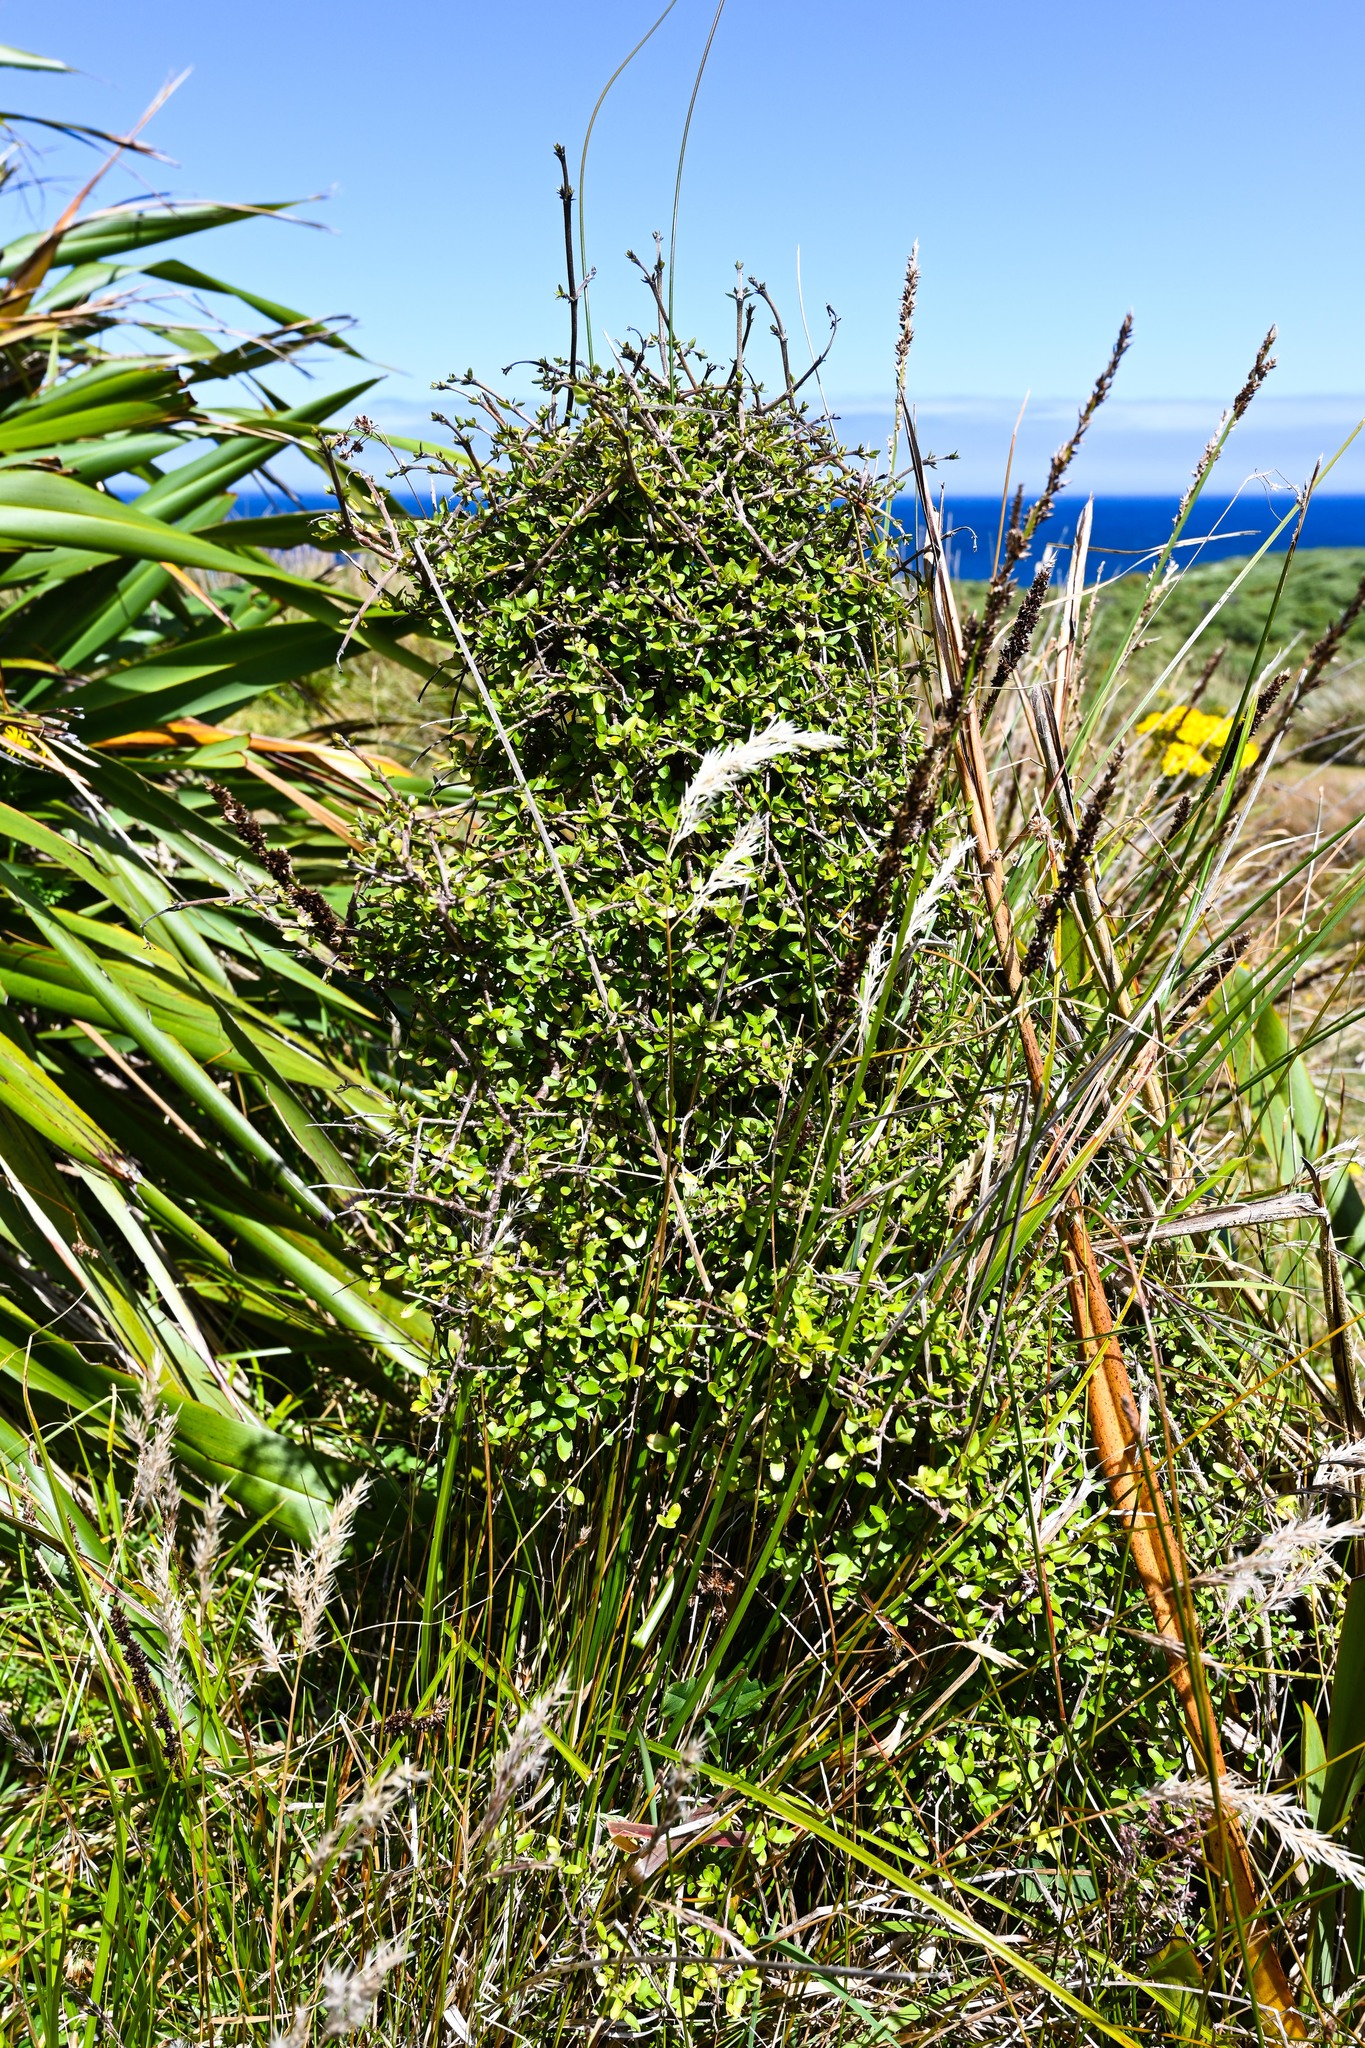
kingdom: Plantae
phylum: Tracheophyta
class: Magnoliopsida
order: Gentianales
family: Rubiaceae
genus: Coprosma
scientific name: Coprosma propinqua
